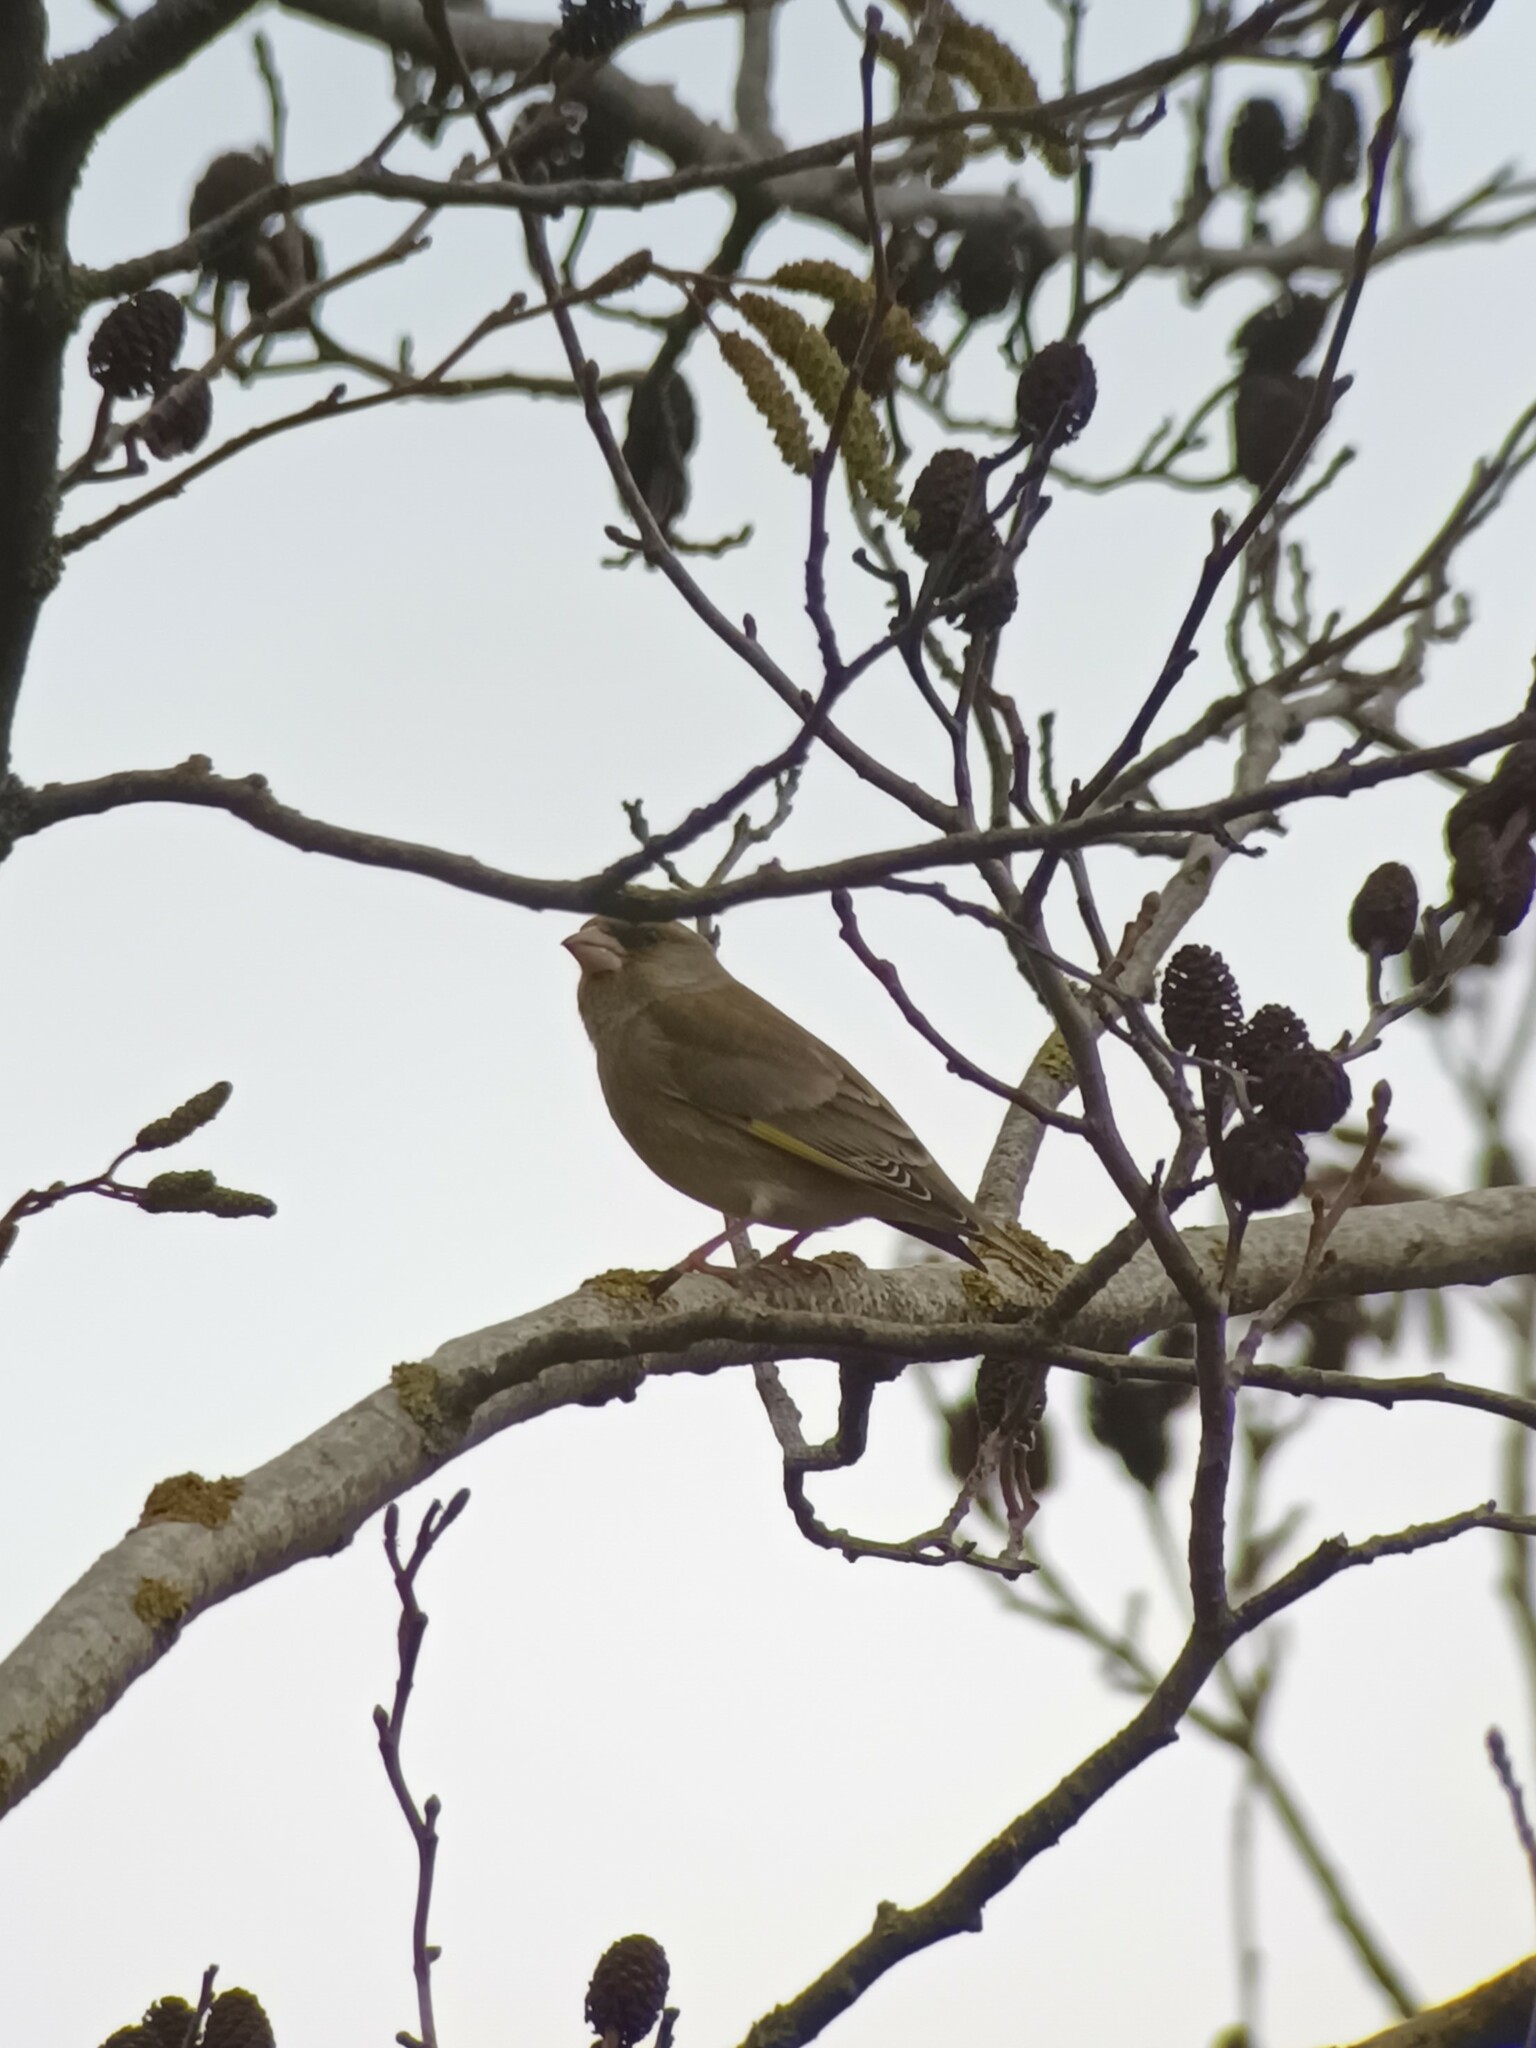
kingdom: Plantae
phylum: Tracheophyta
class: Liliopsida
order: Poales
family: Poaceae
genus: Chloris
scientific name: Chloris chloris
